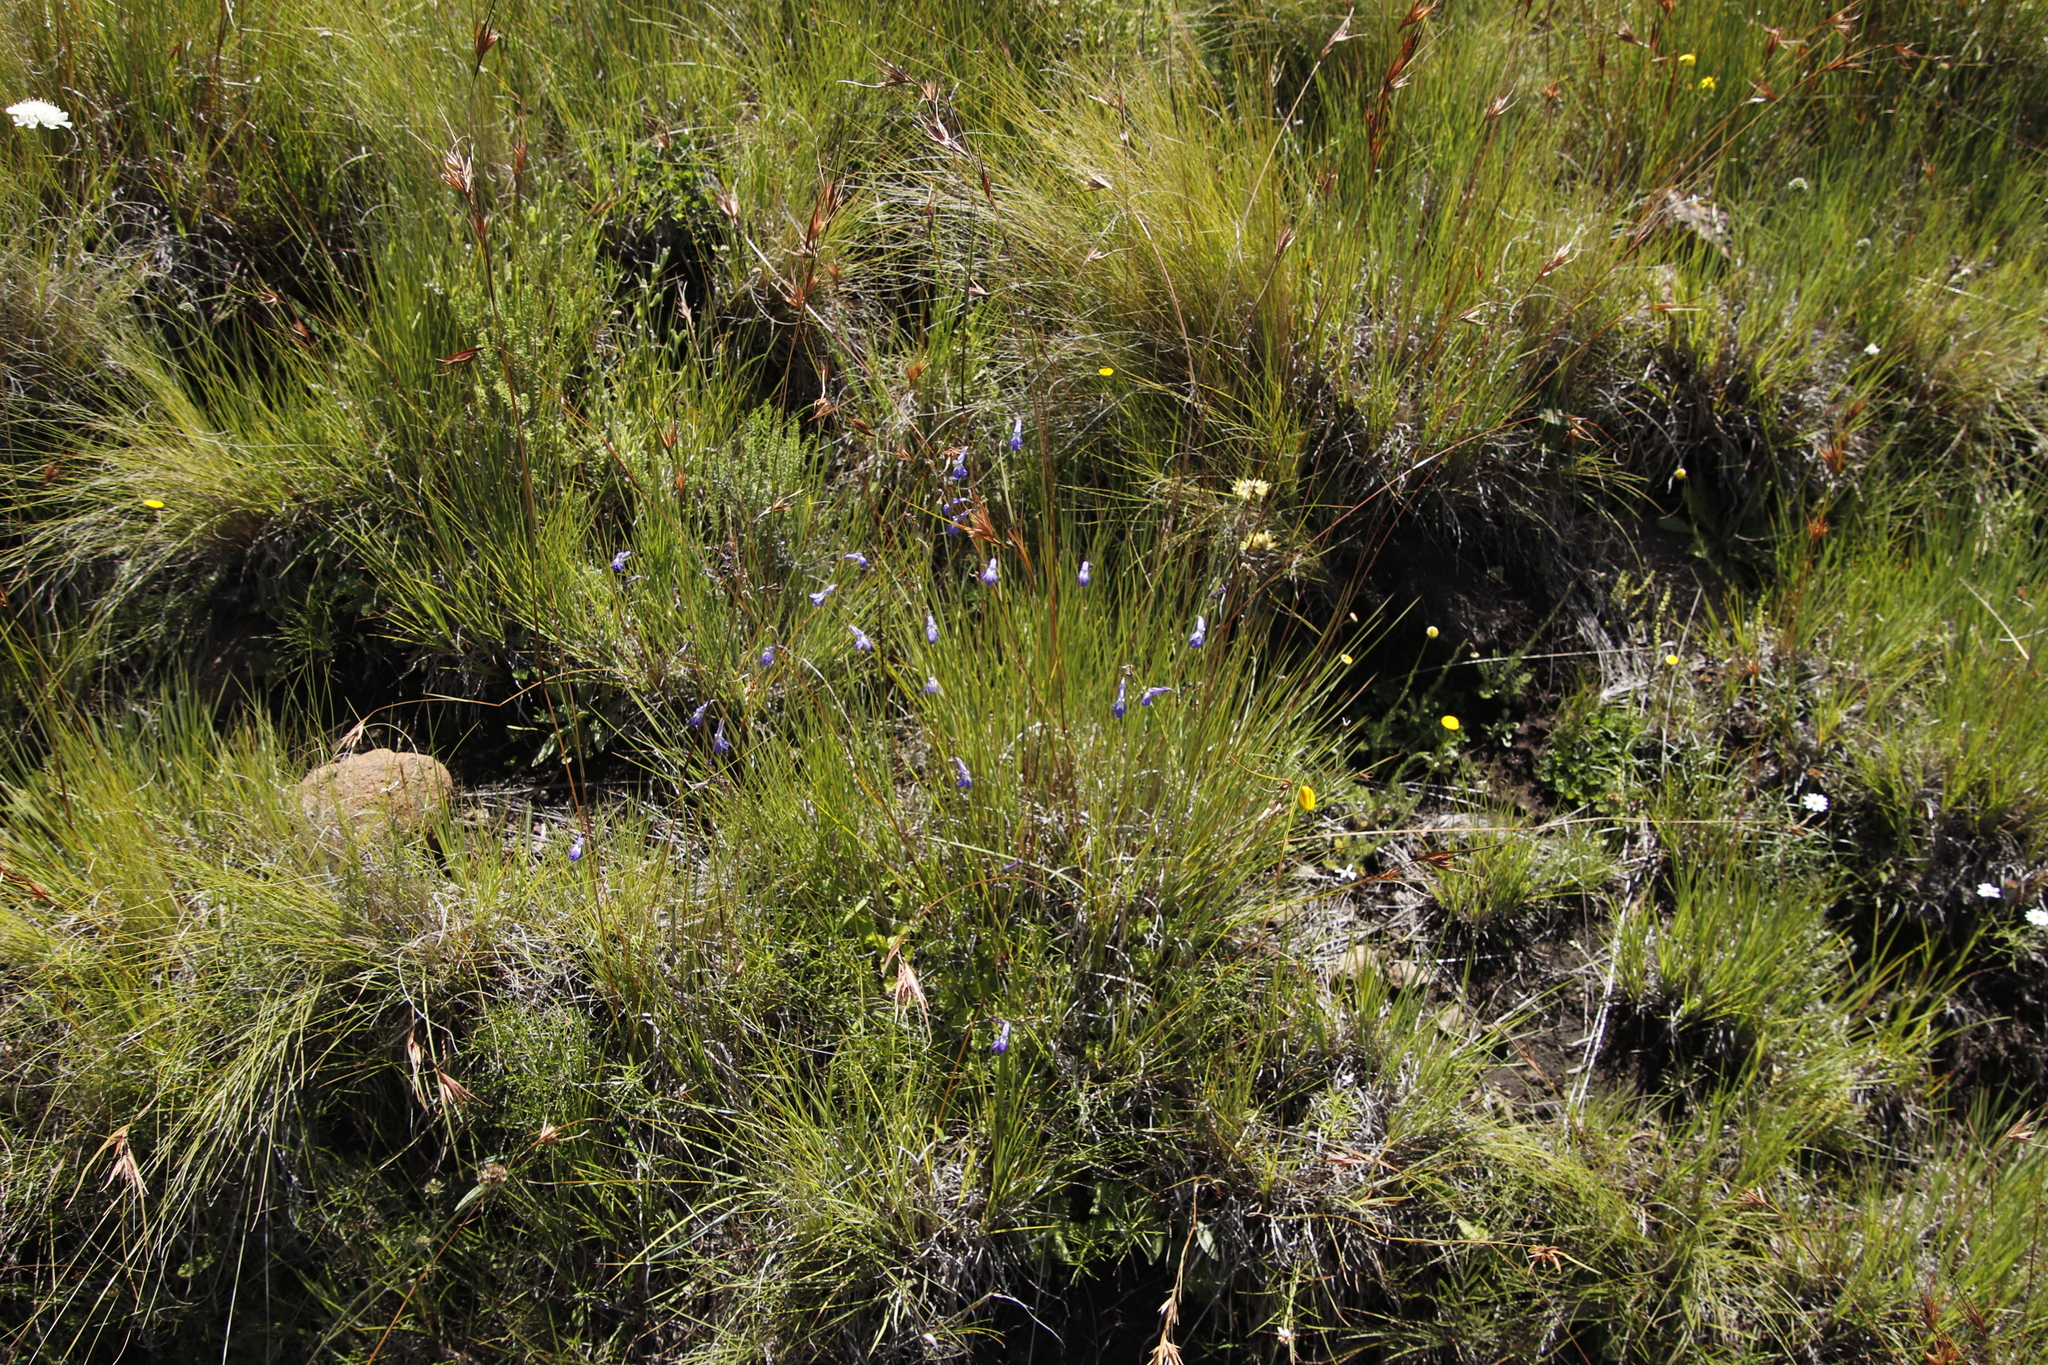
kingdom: Plantae
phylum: Tracheophyta
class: Magnoliopsida
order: Asterales
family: Campanulaceae
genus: Lobelia
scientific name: Lobelia preslii
